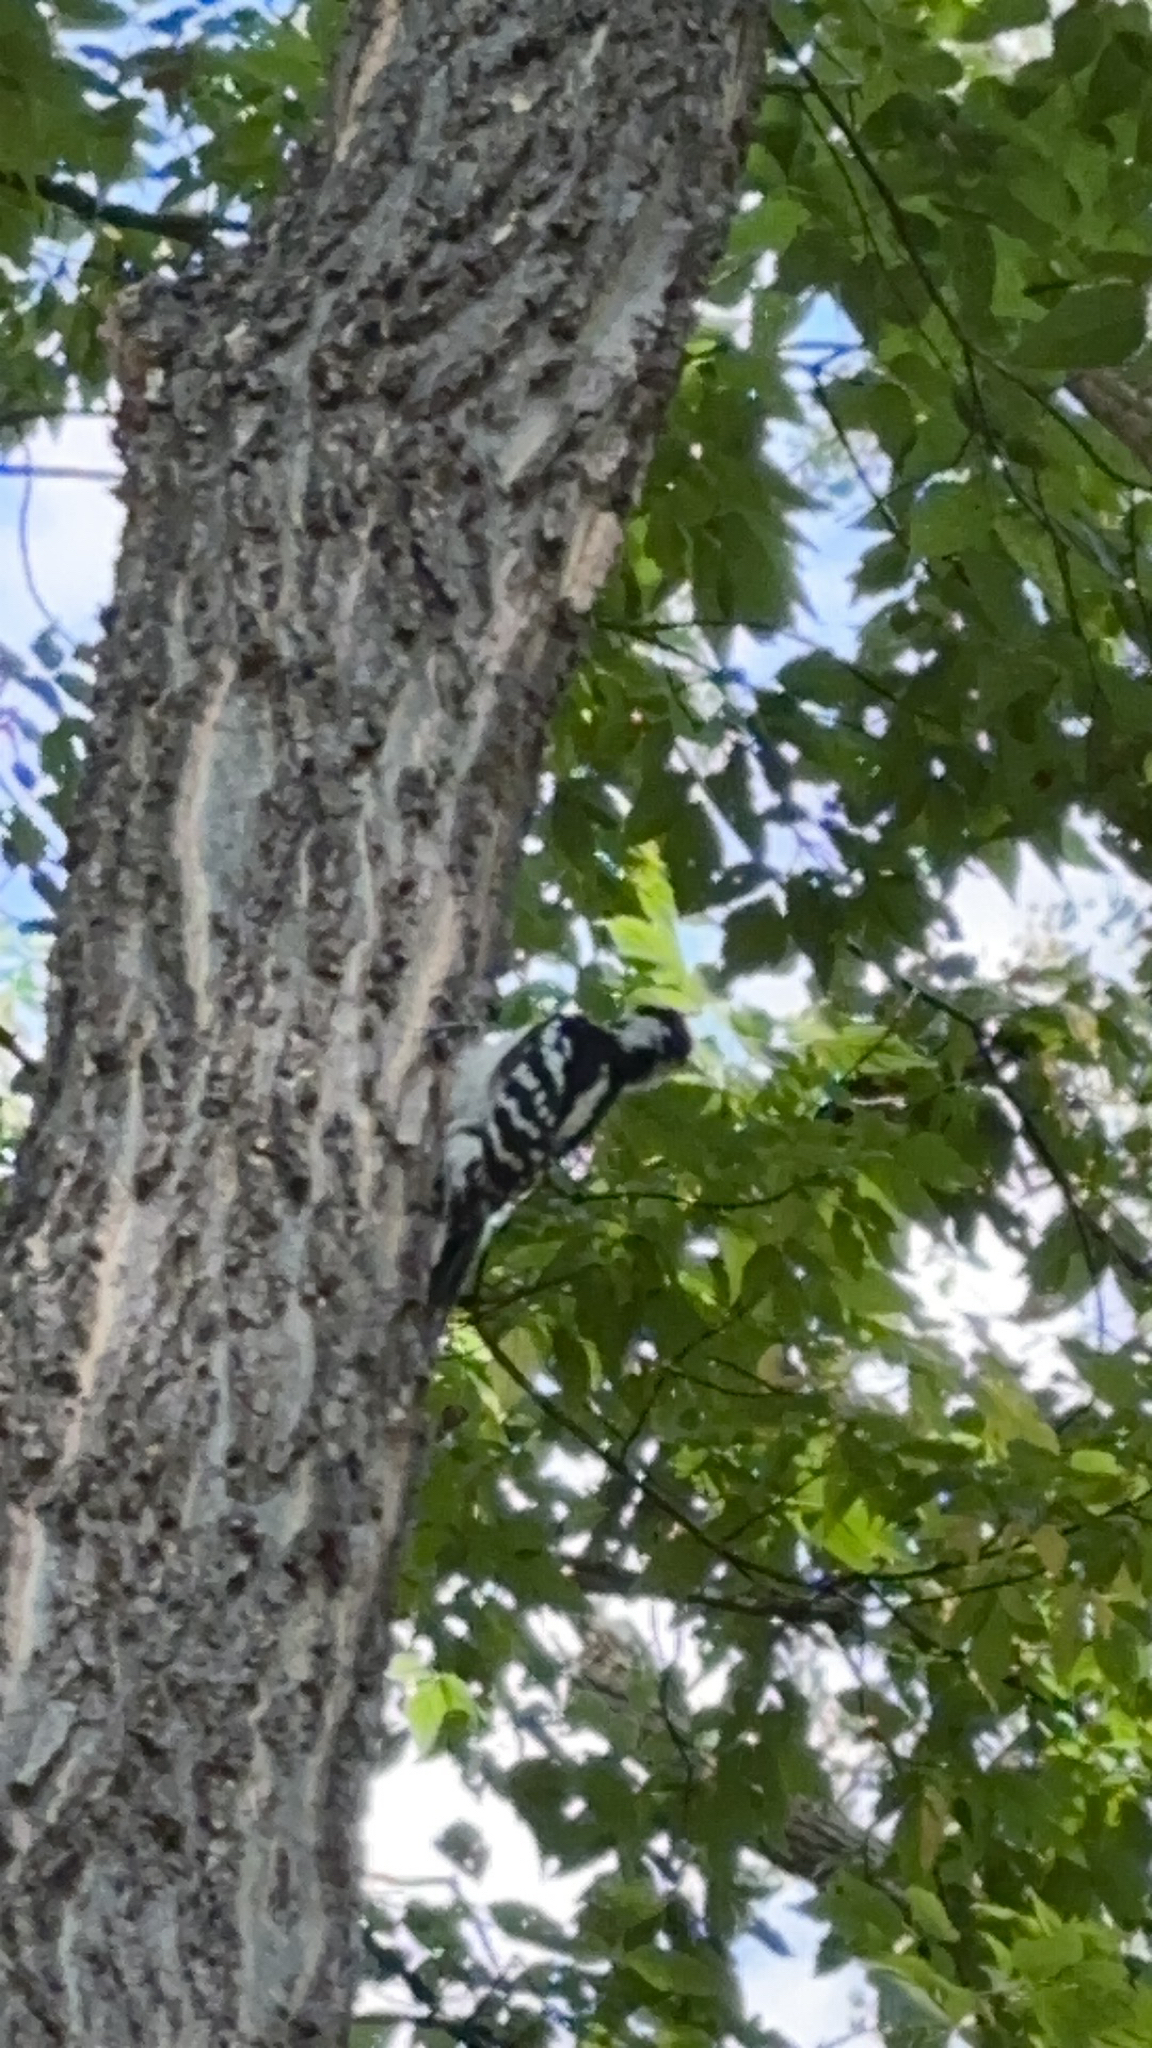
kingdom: Animalia
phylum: Chordata
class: Aves
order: Piciformes
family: Picidae
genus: Dryobates
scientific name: Dryobates pubescens
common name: Downy woodpecker
